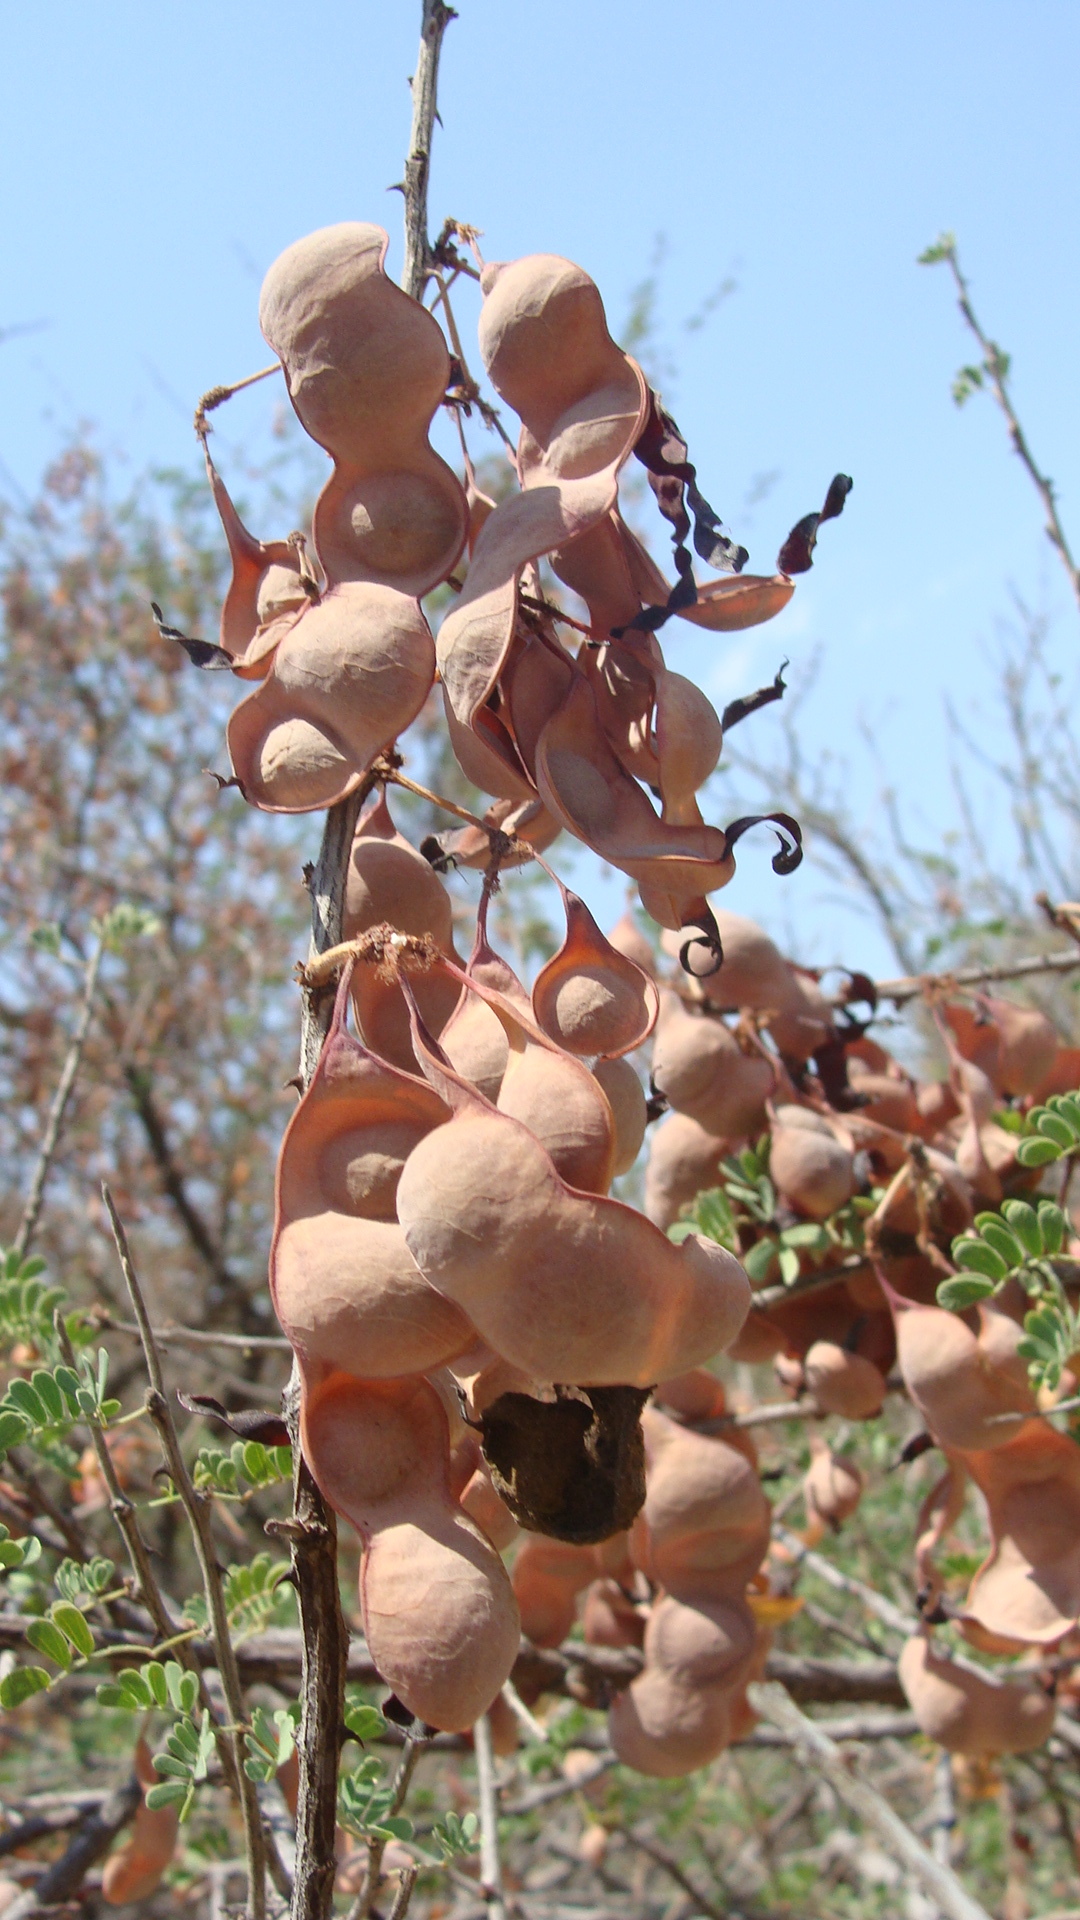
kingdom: Plantae
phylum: Tracheophyta
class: Magnoliopsida
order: Fabales
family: Fabaceae
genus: Senegalia
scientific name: Senegalia peninsularis
